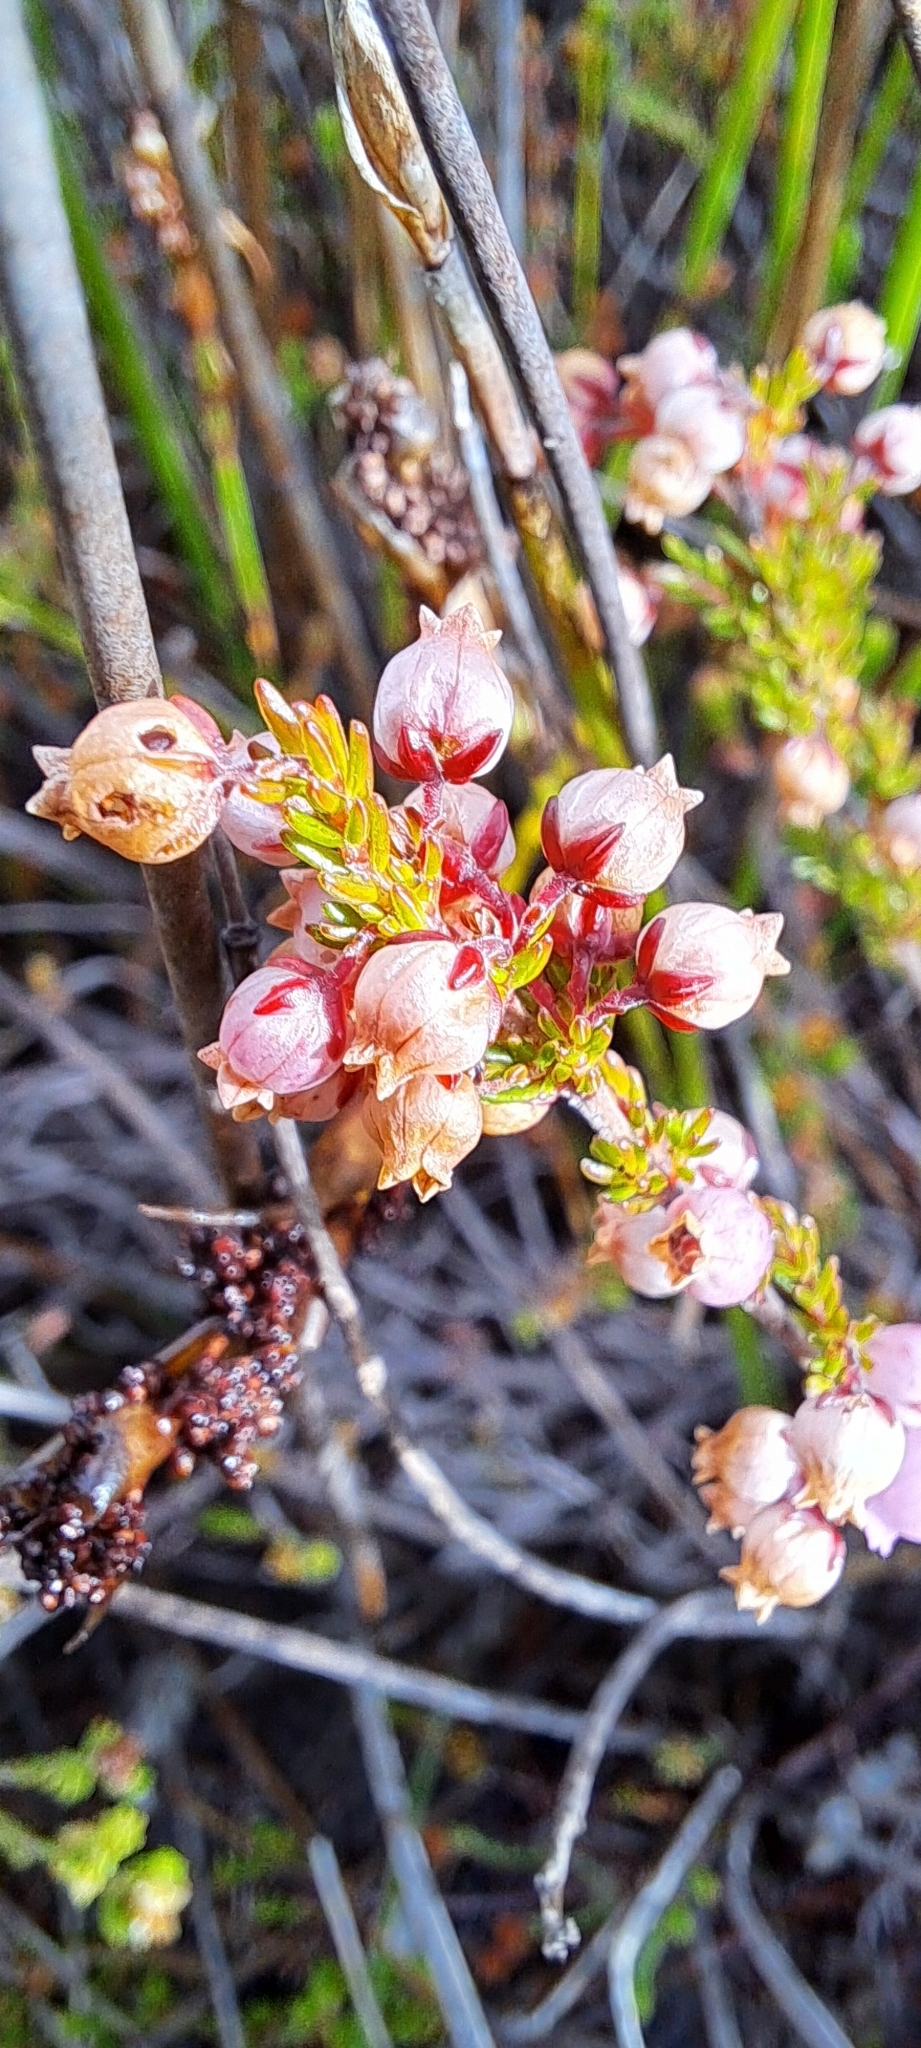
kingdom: Plantae
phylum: Tracheophyta
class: Magnoliopsida
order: Ericales
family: Ericaceae
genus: Erica
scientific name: Erica tenella
